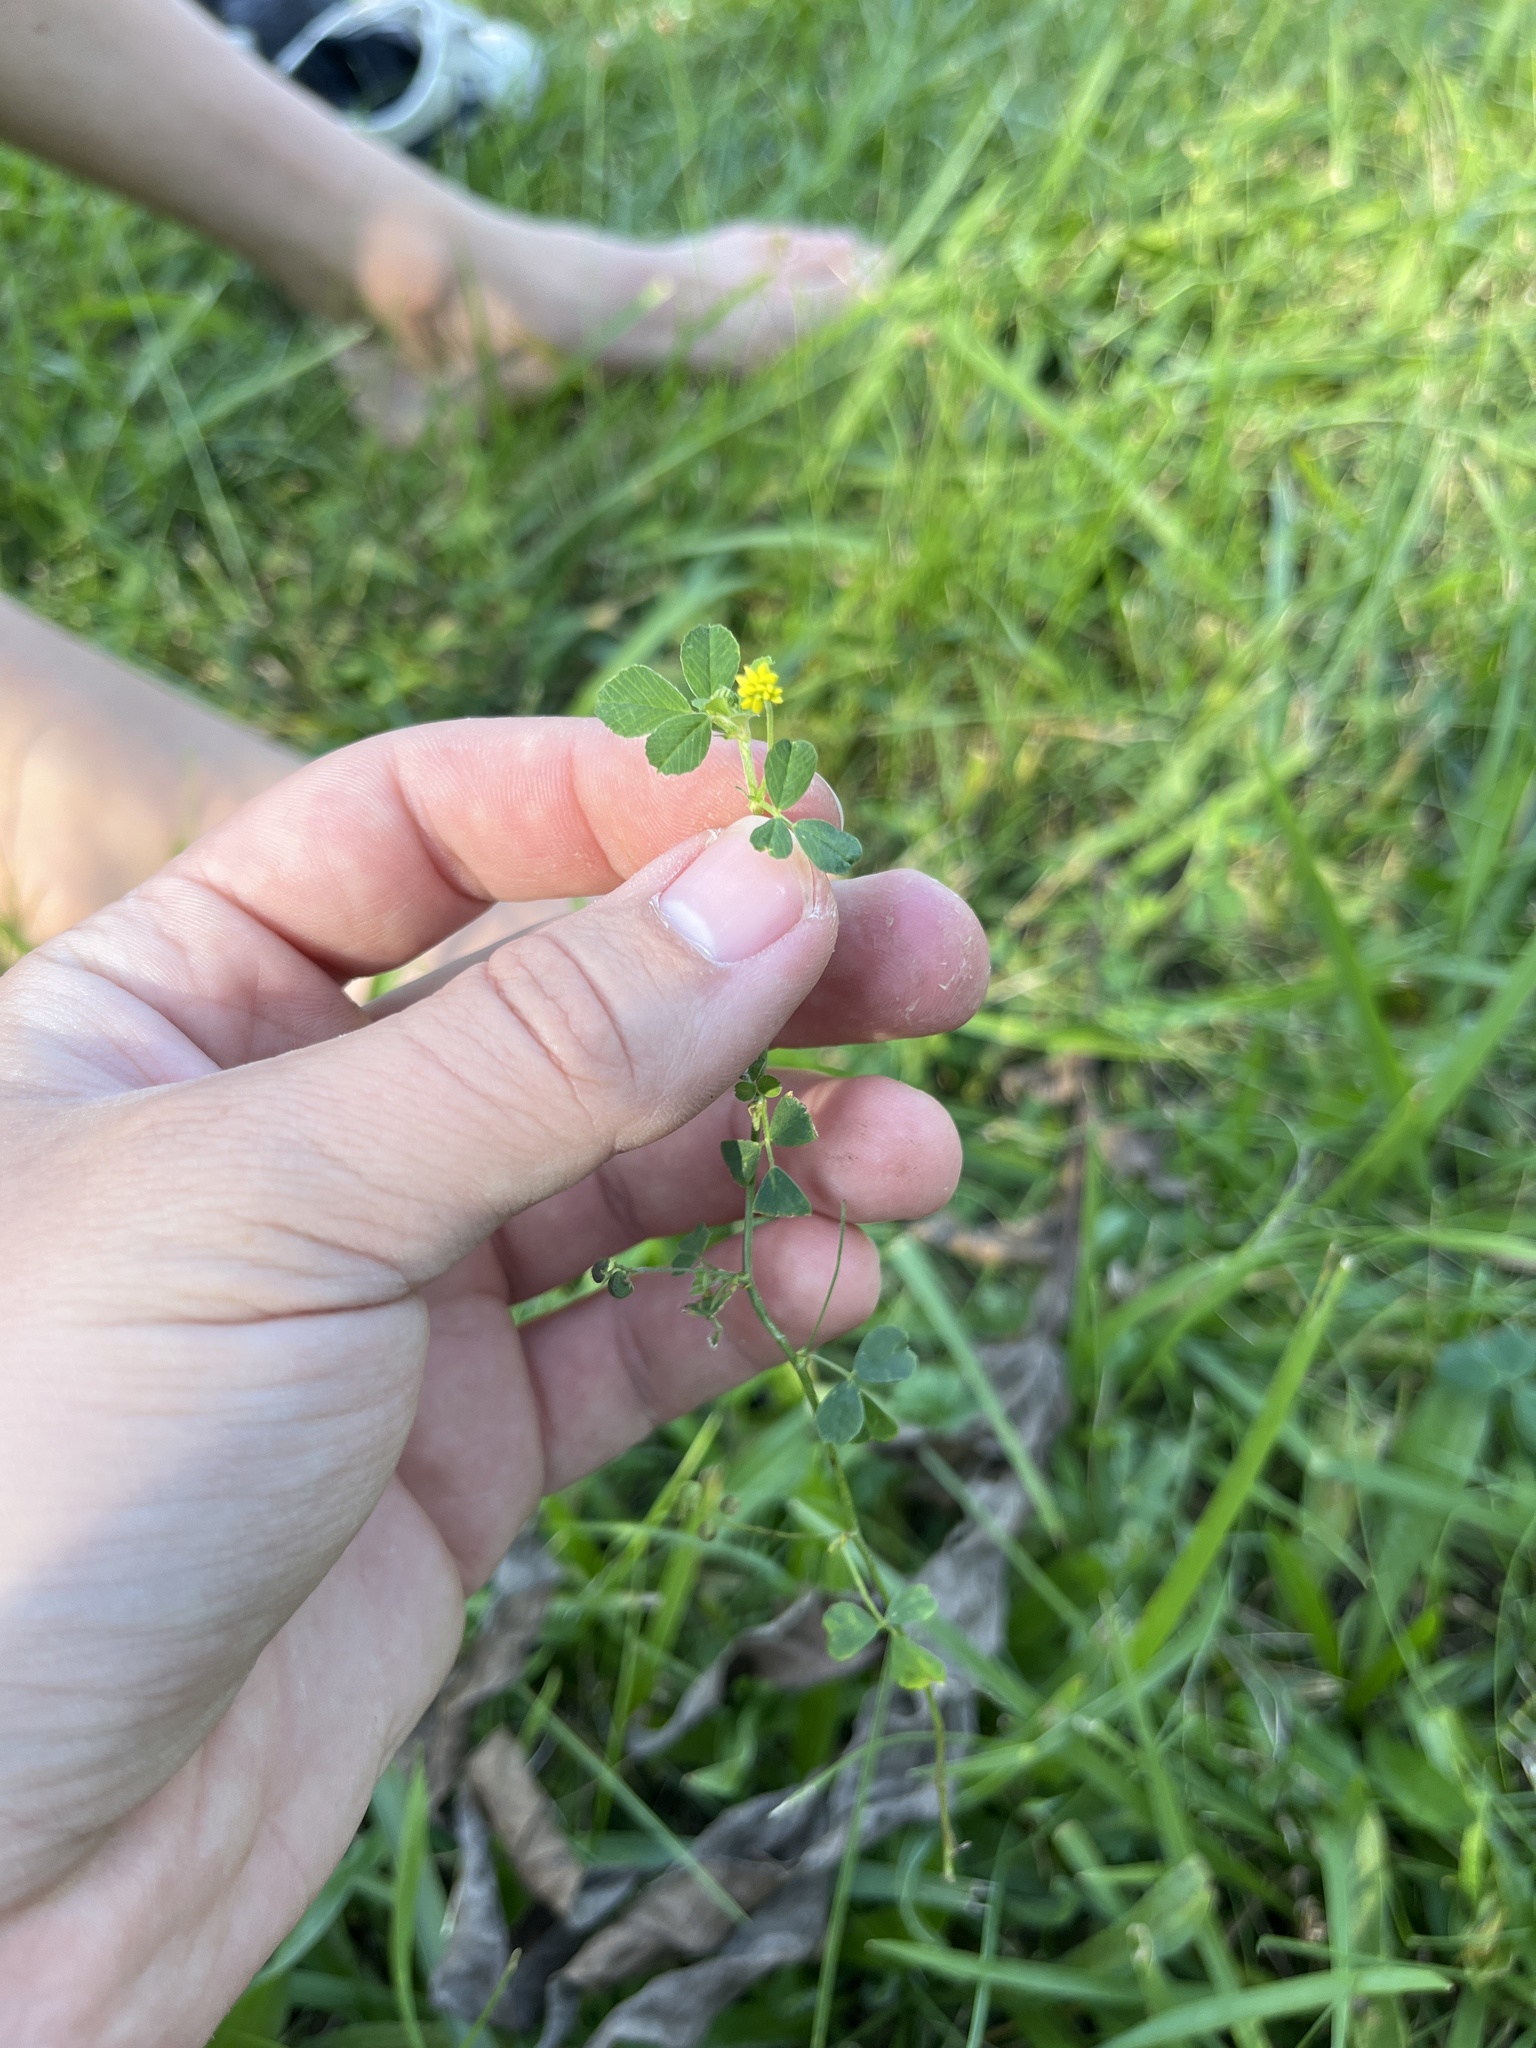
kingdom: Plantae
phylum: Tracheophyta
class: Magnoliopsida
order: Fabales
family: Fabaceae
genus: Medicago
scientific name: Medicago lupulina
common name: Black medick
